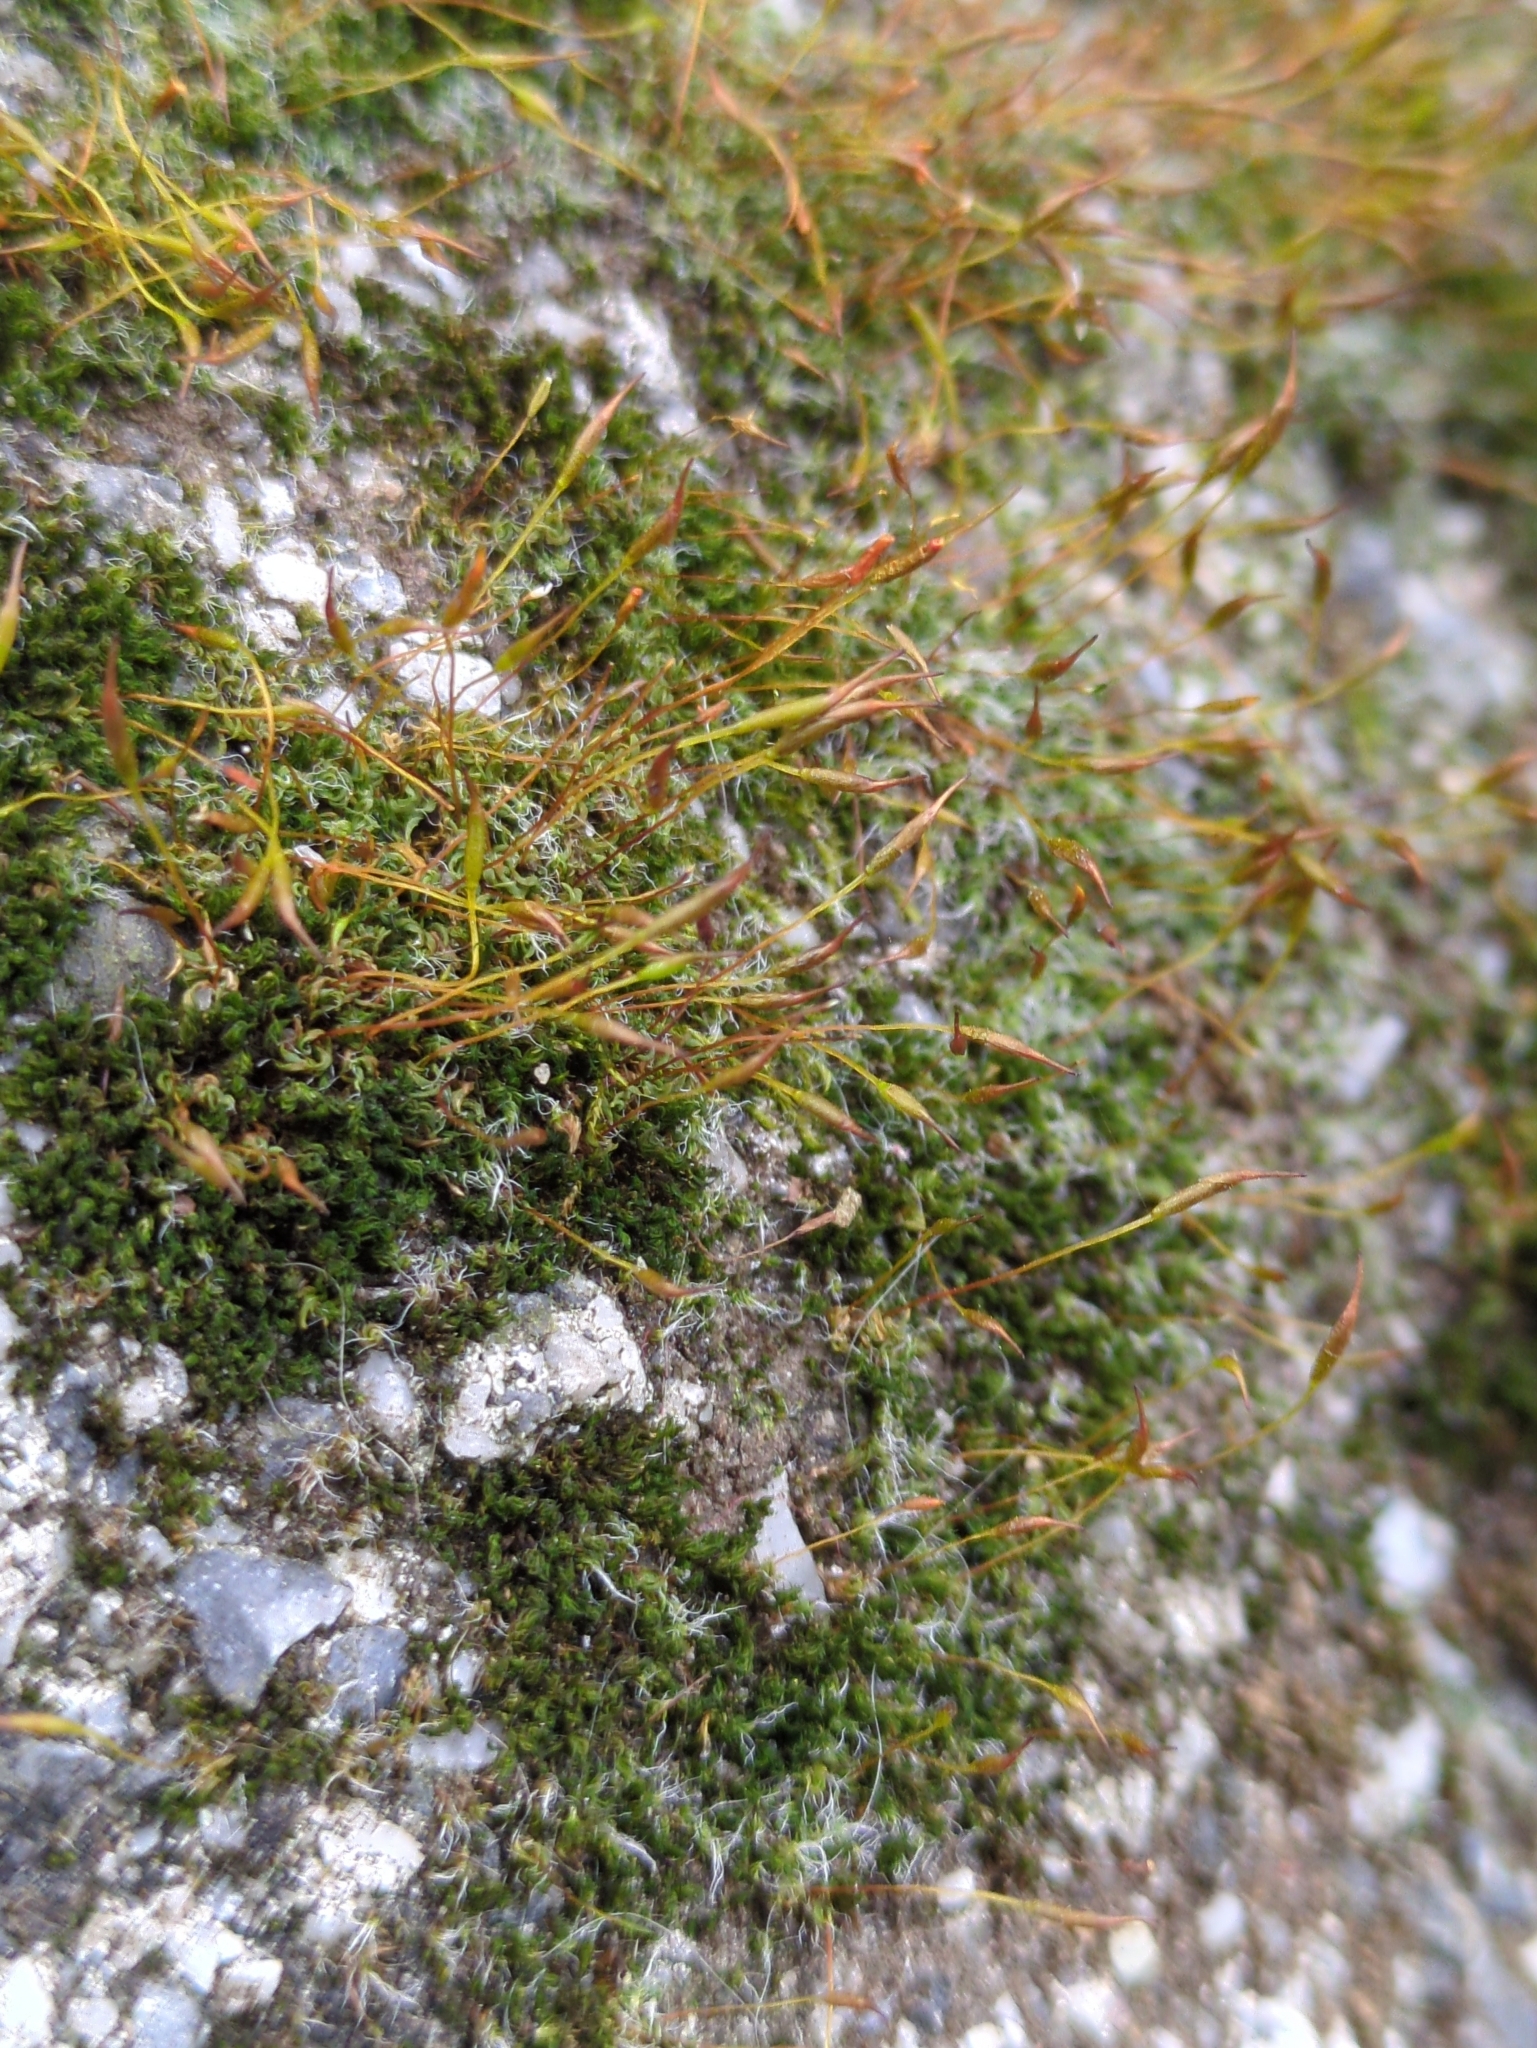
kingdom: Plantae
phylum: Bryophyta
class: Bryopsida
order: Pottiales
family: Pottiaceae
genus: Tortula
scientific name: Tortula muralis
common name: Wall screw-moss
